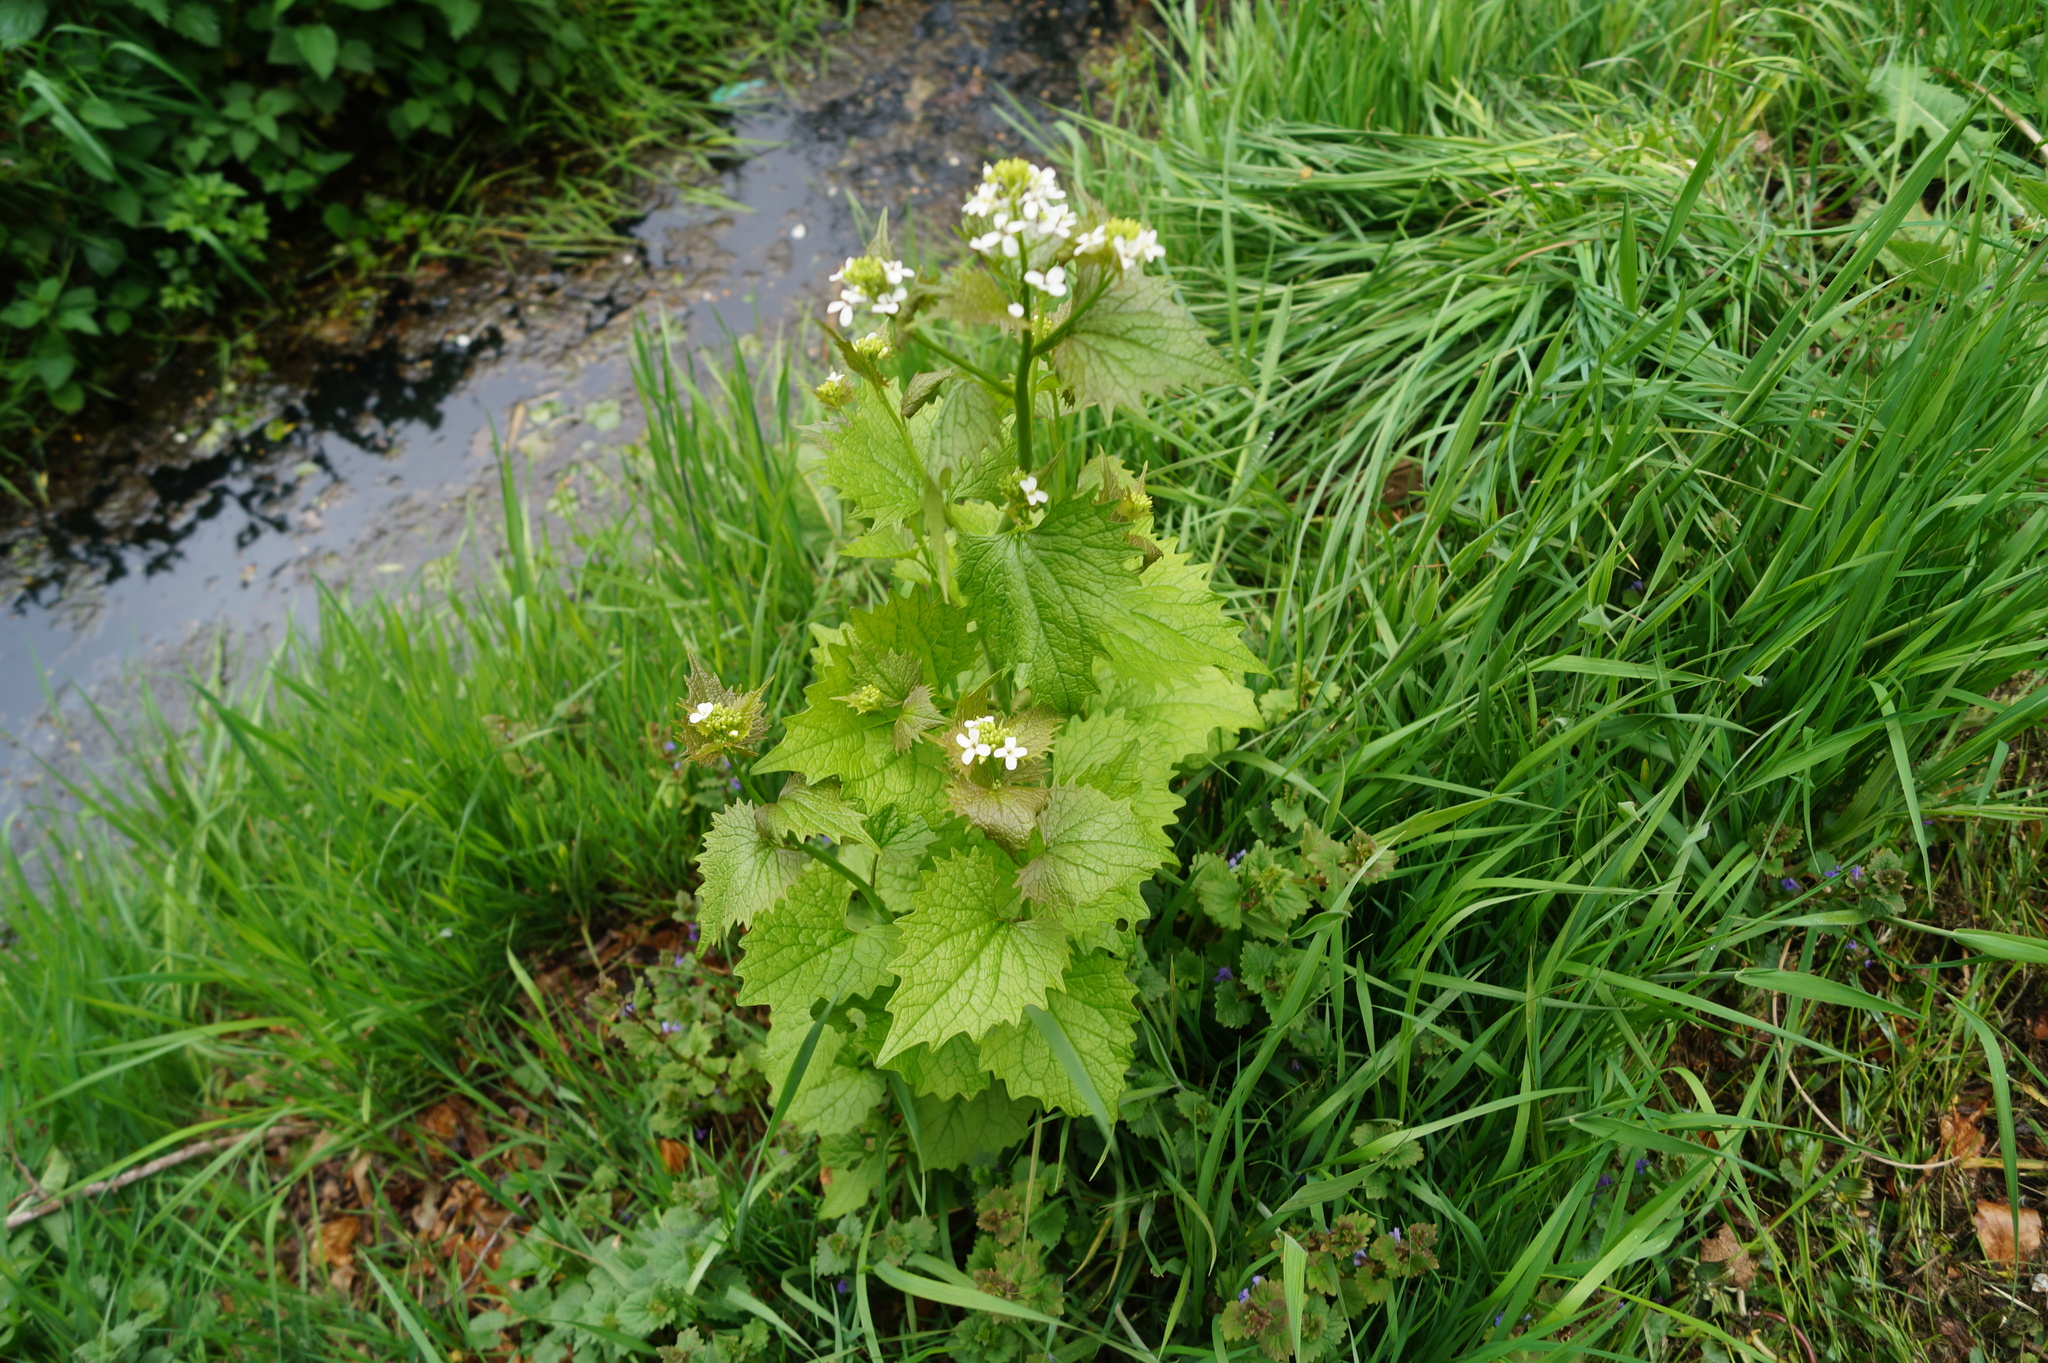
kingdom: Plantae
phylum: Tracheophyta
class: Magnoliopsida
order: Brassicales
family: Brassicaceae
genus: Alliaria
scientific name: Alliaria petiolata
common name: Garlic mustard
